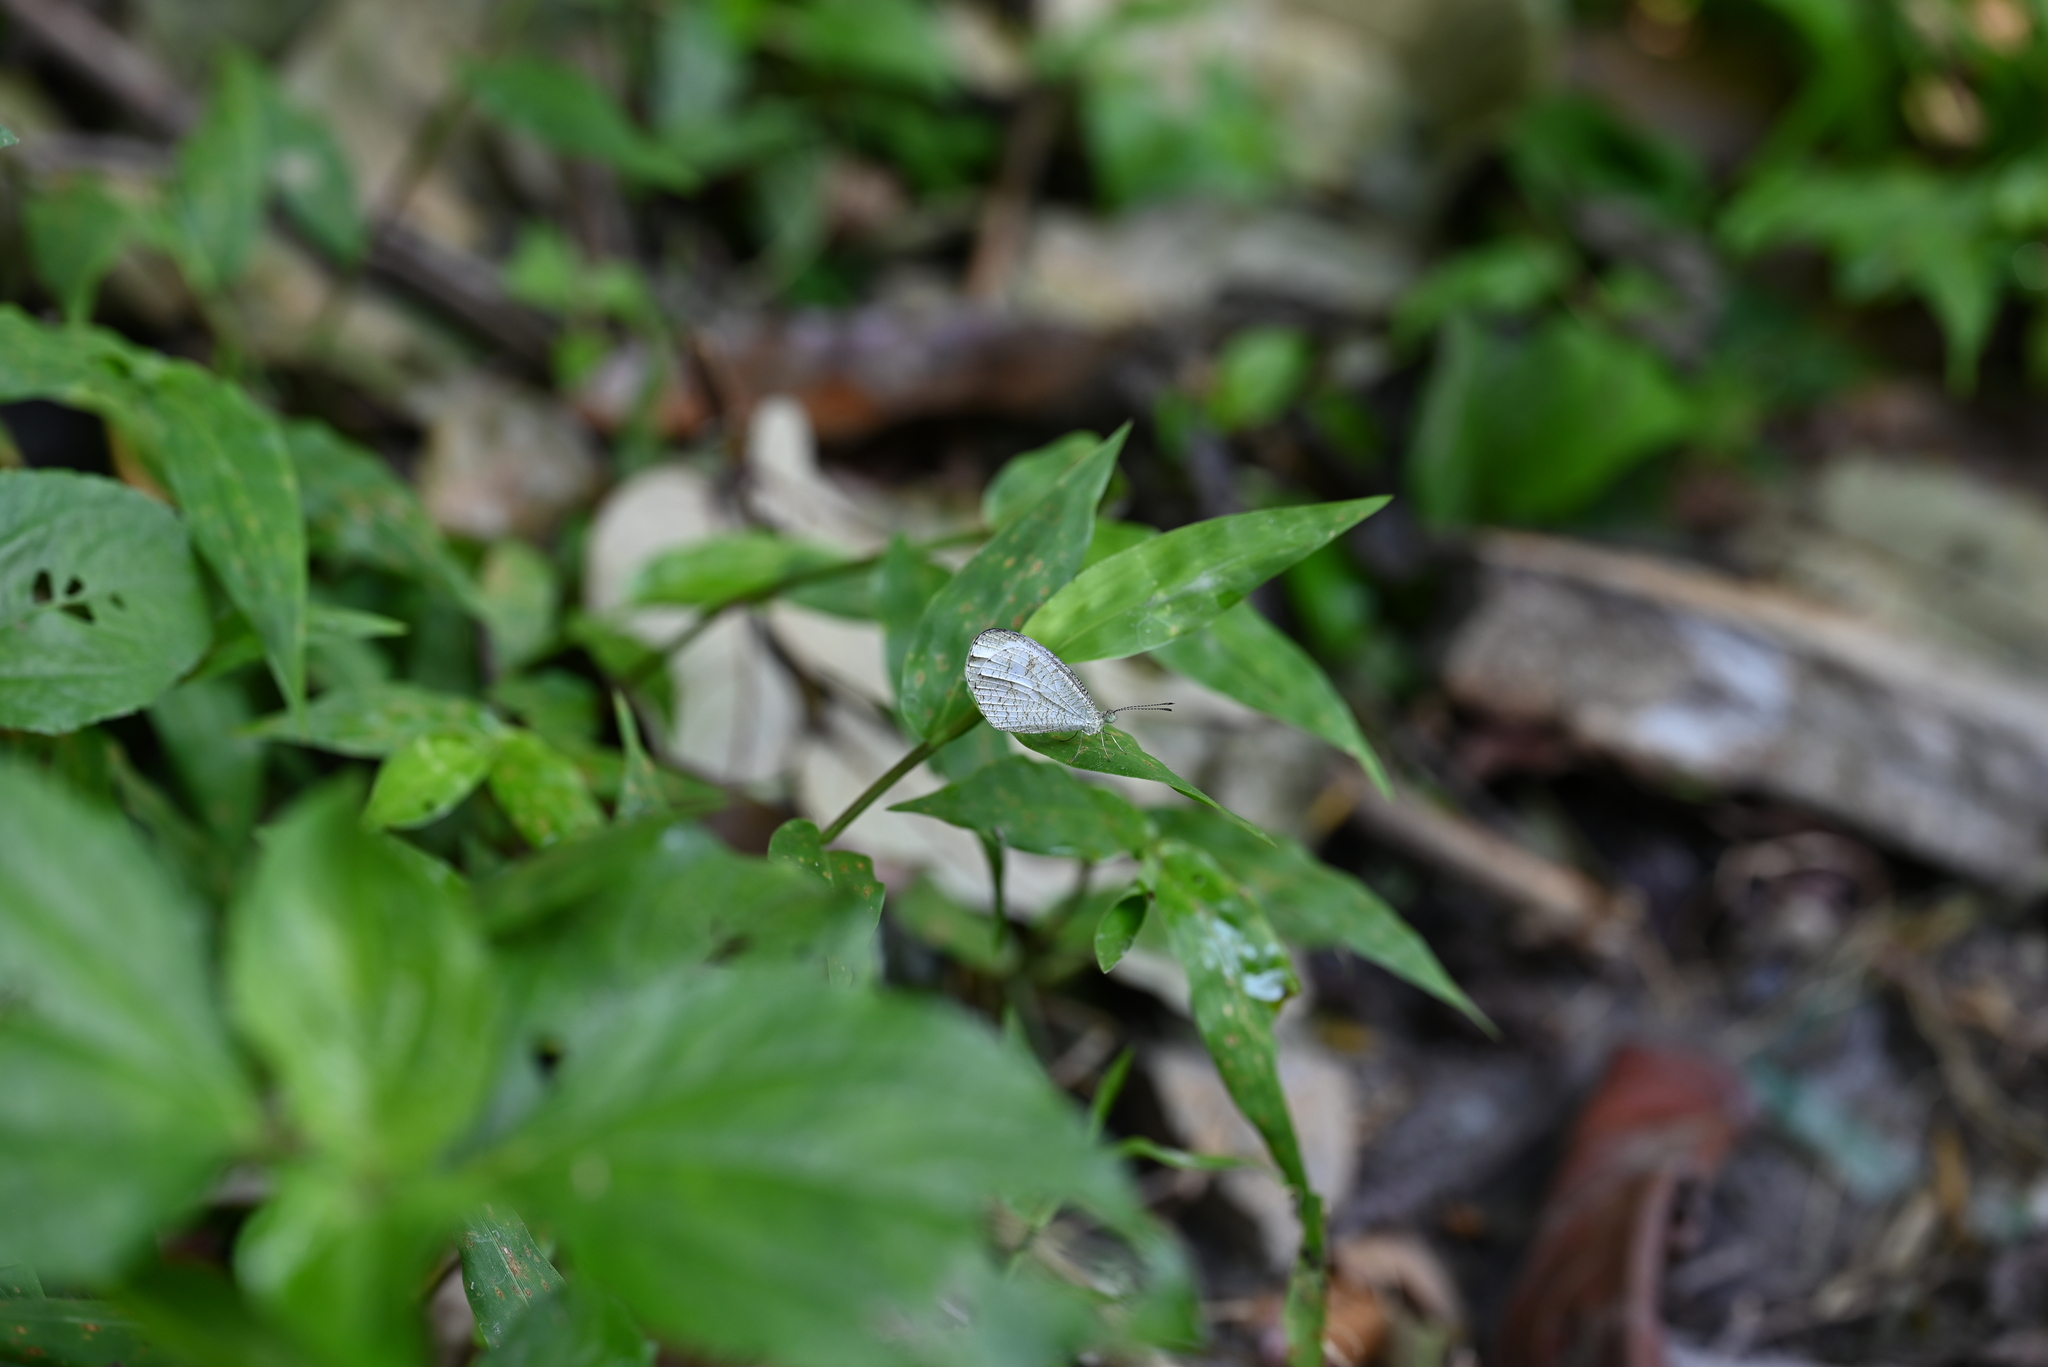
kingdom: Animalia
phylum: Arthropoda
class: Insecta
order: Lepidoptera
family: Pieridae
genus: Leptosia
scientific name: Leptosia nina
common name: Psyche
